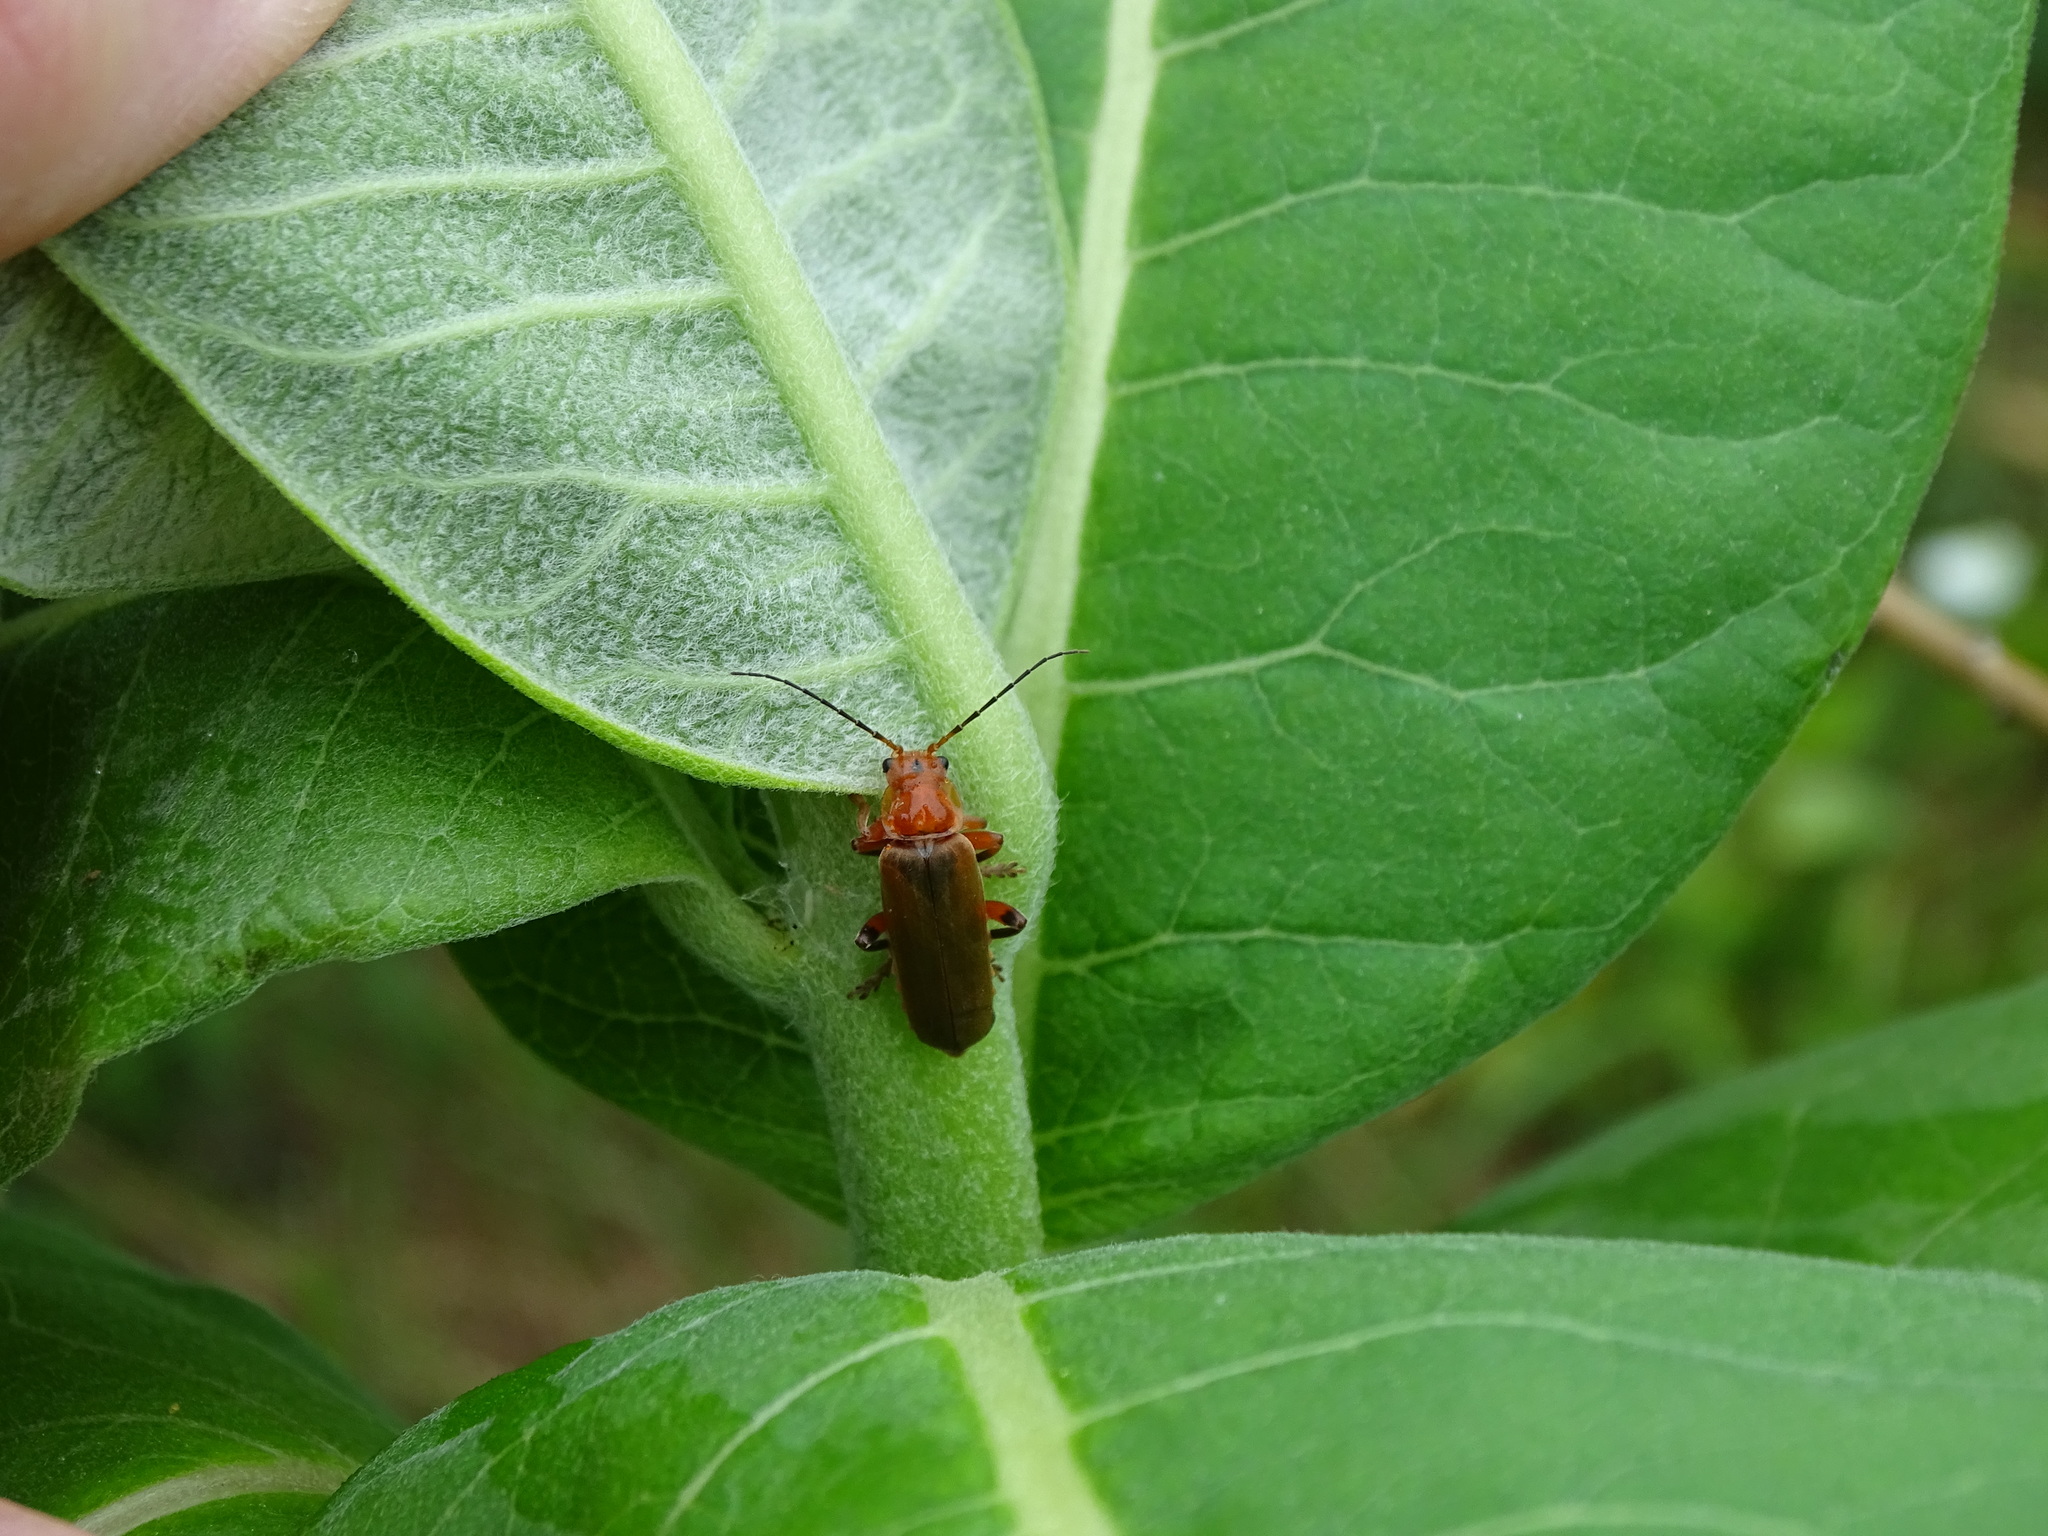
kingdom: Animalia
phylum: Arthropoda
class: Insecta
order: Coleoptera
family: Cantharidae
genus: Cantharis
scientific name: Cantharis livida
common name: Livid soldier beetle
